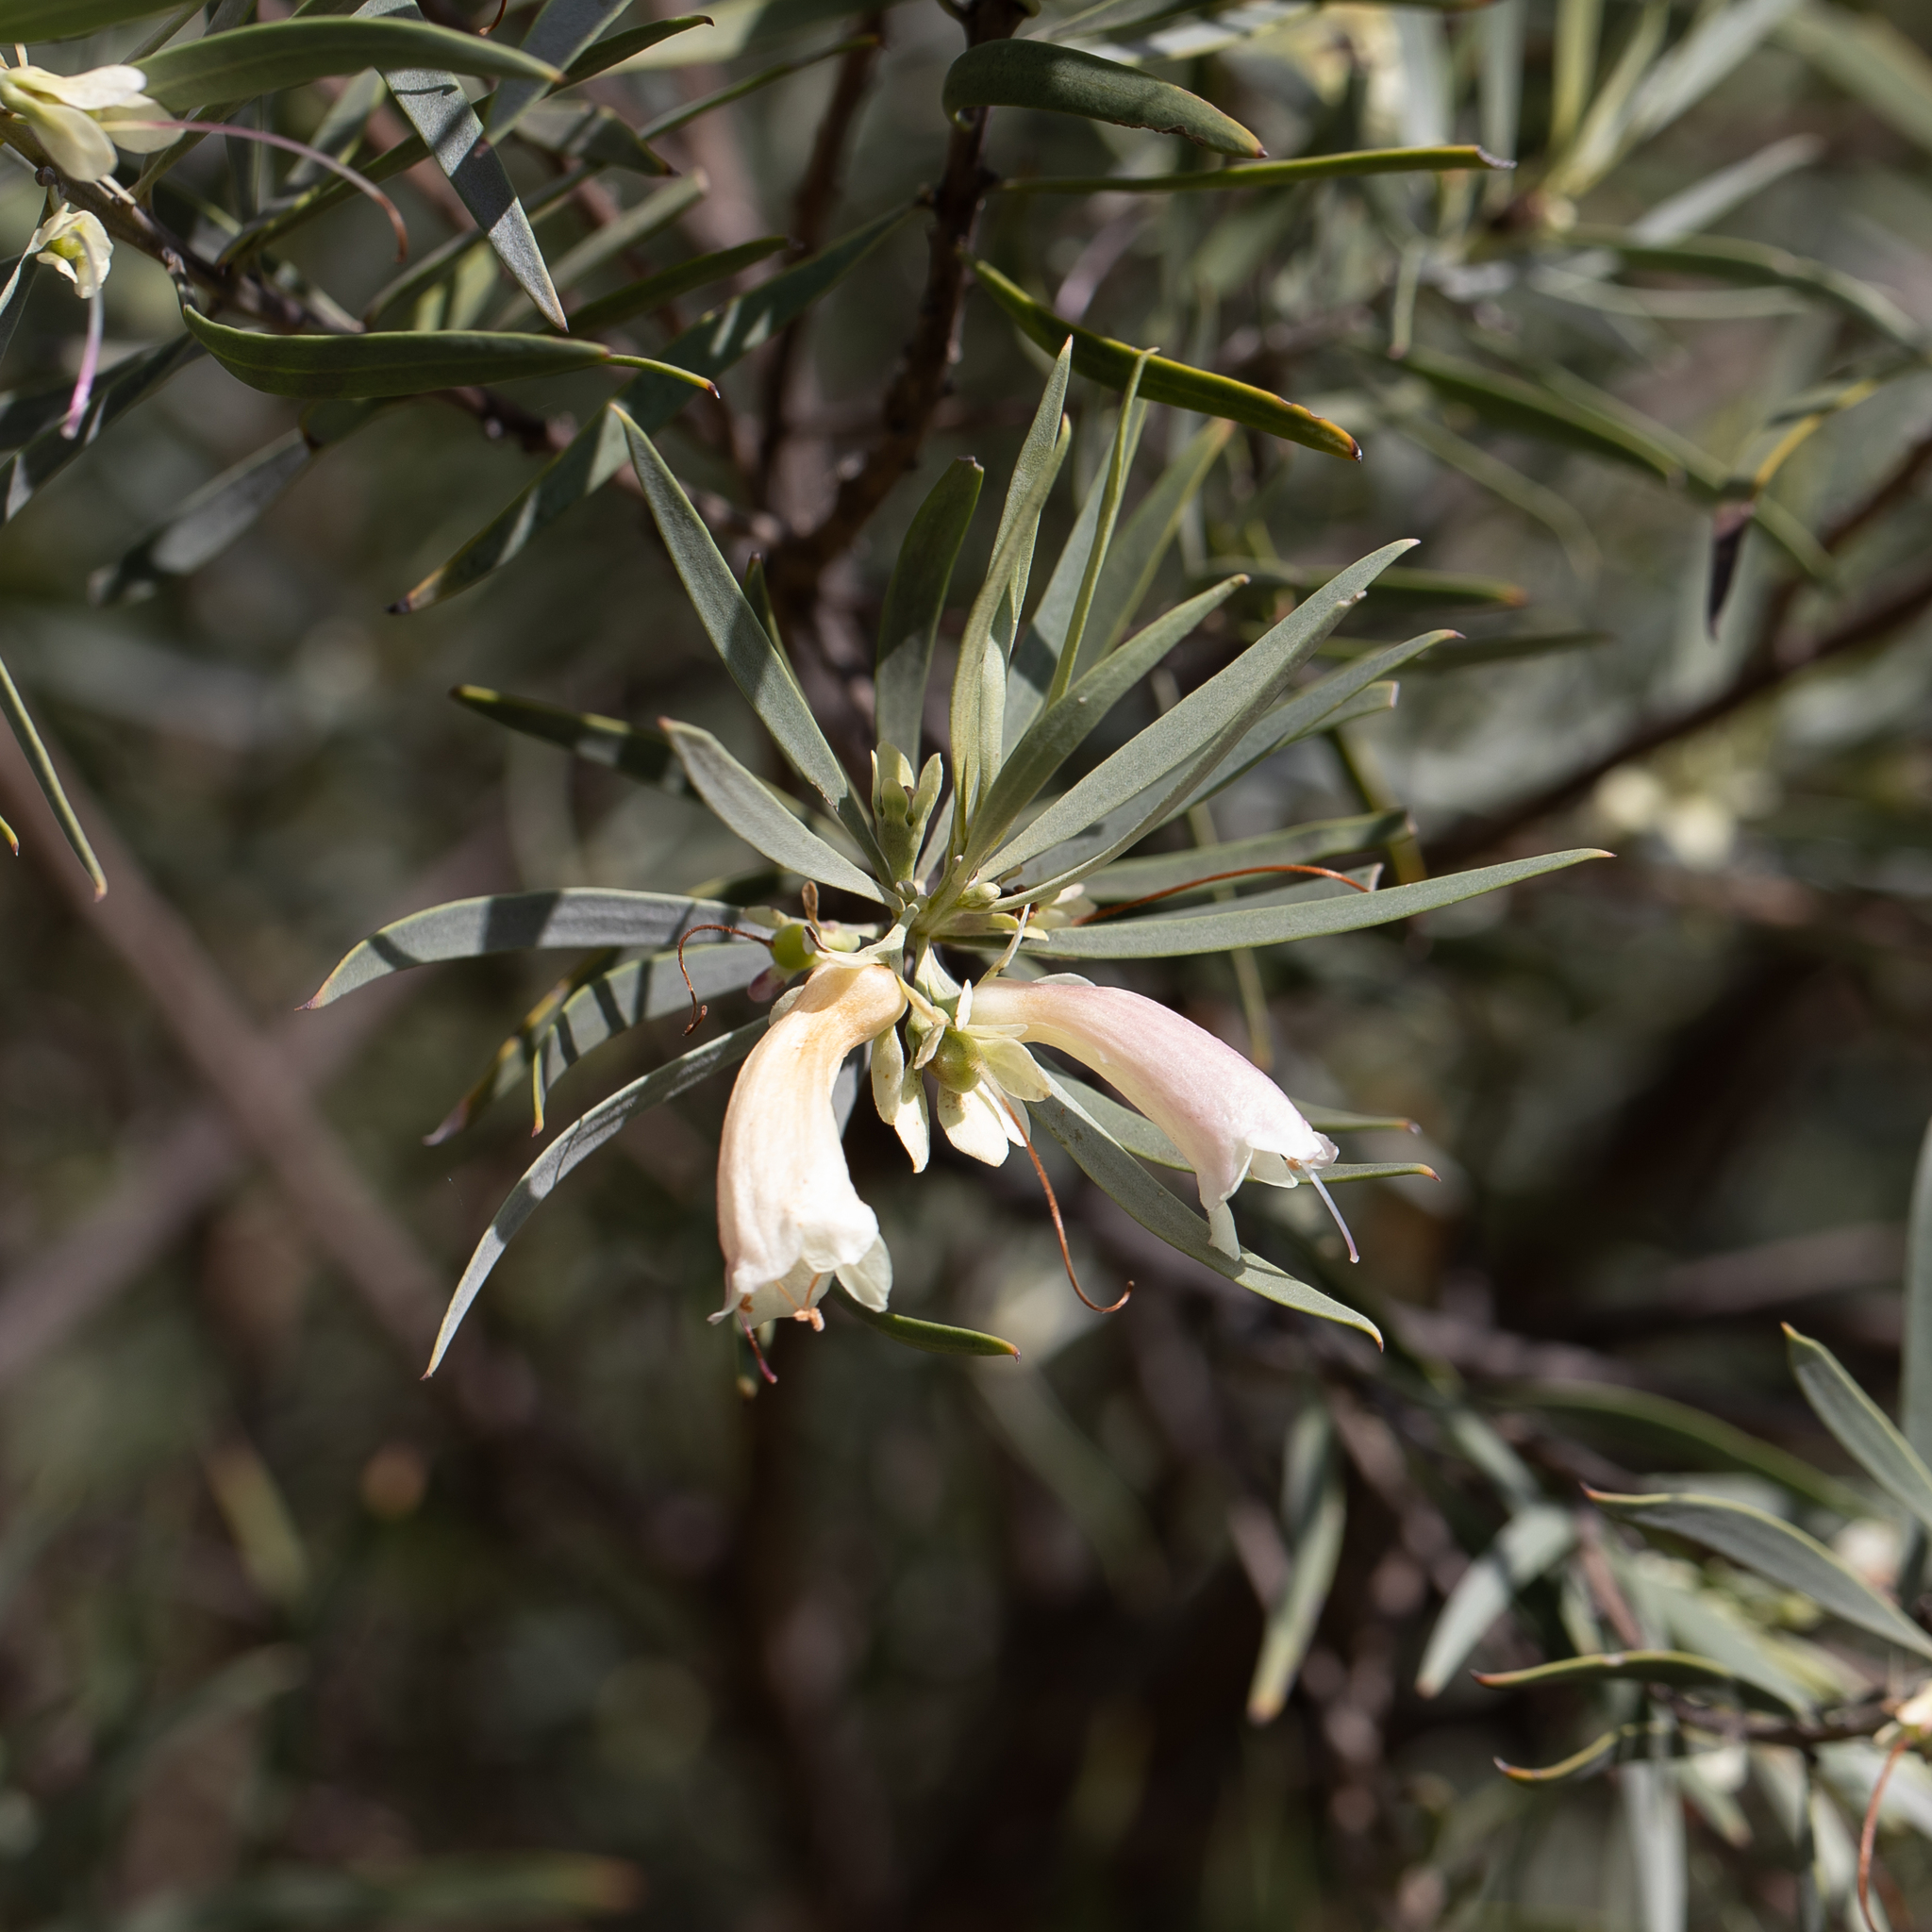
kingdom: Plantae
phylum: Tracheophyta
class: Magnoliopsida
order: Lamiales
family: Scrophulariaceae
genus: Eremophila
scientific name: Eremophila oppositifolia
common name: Mountain-sandalwood
